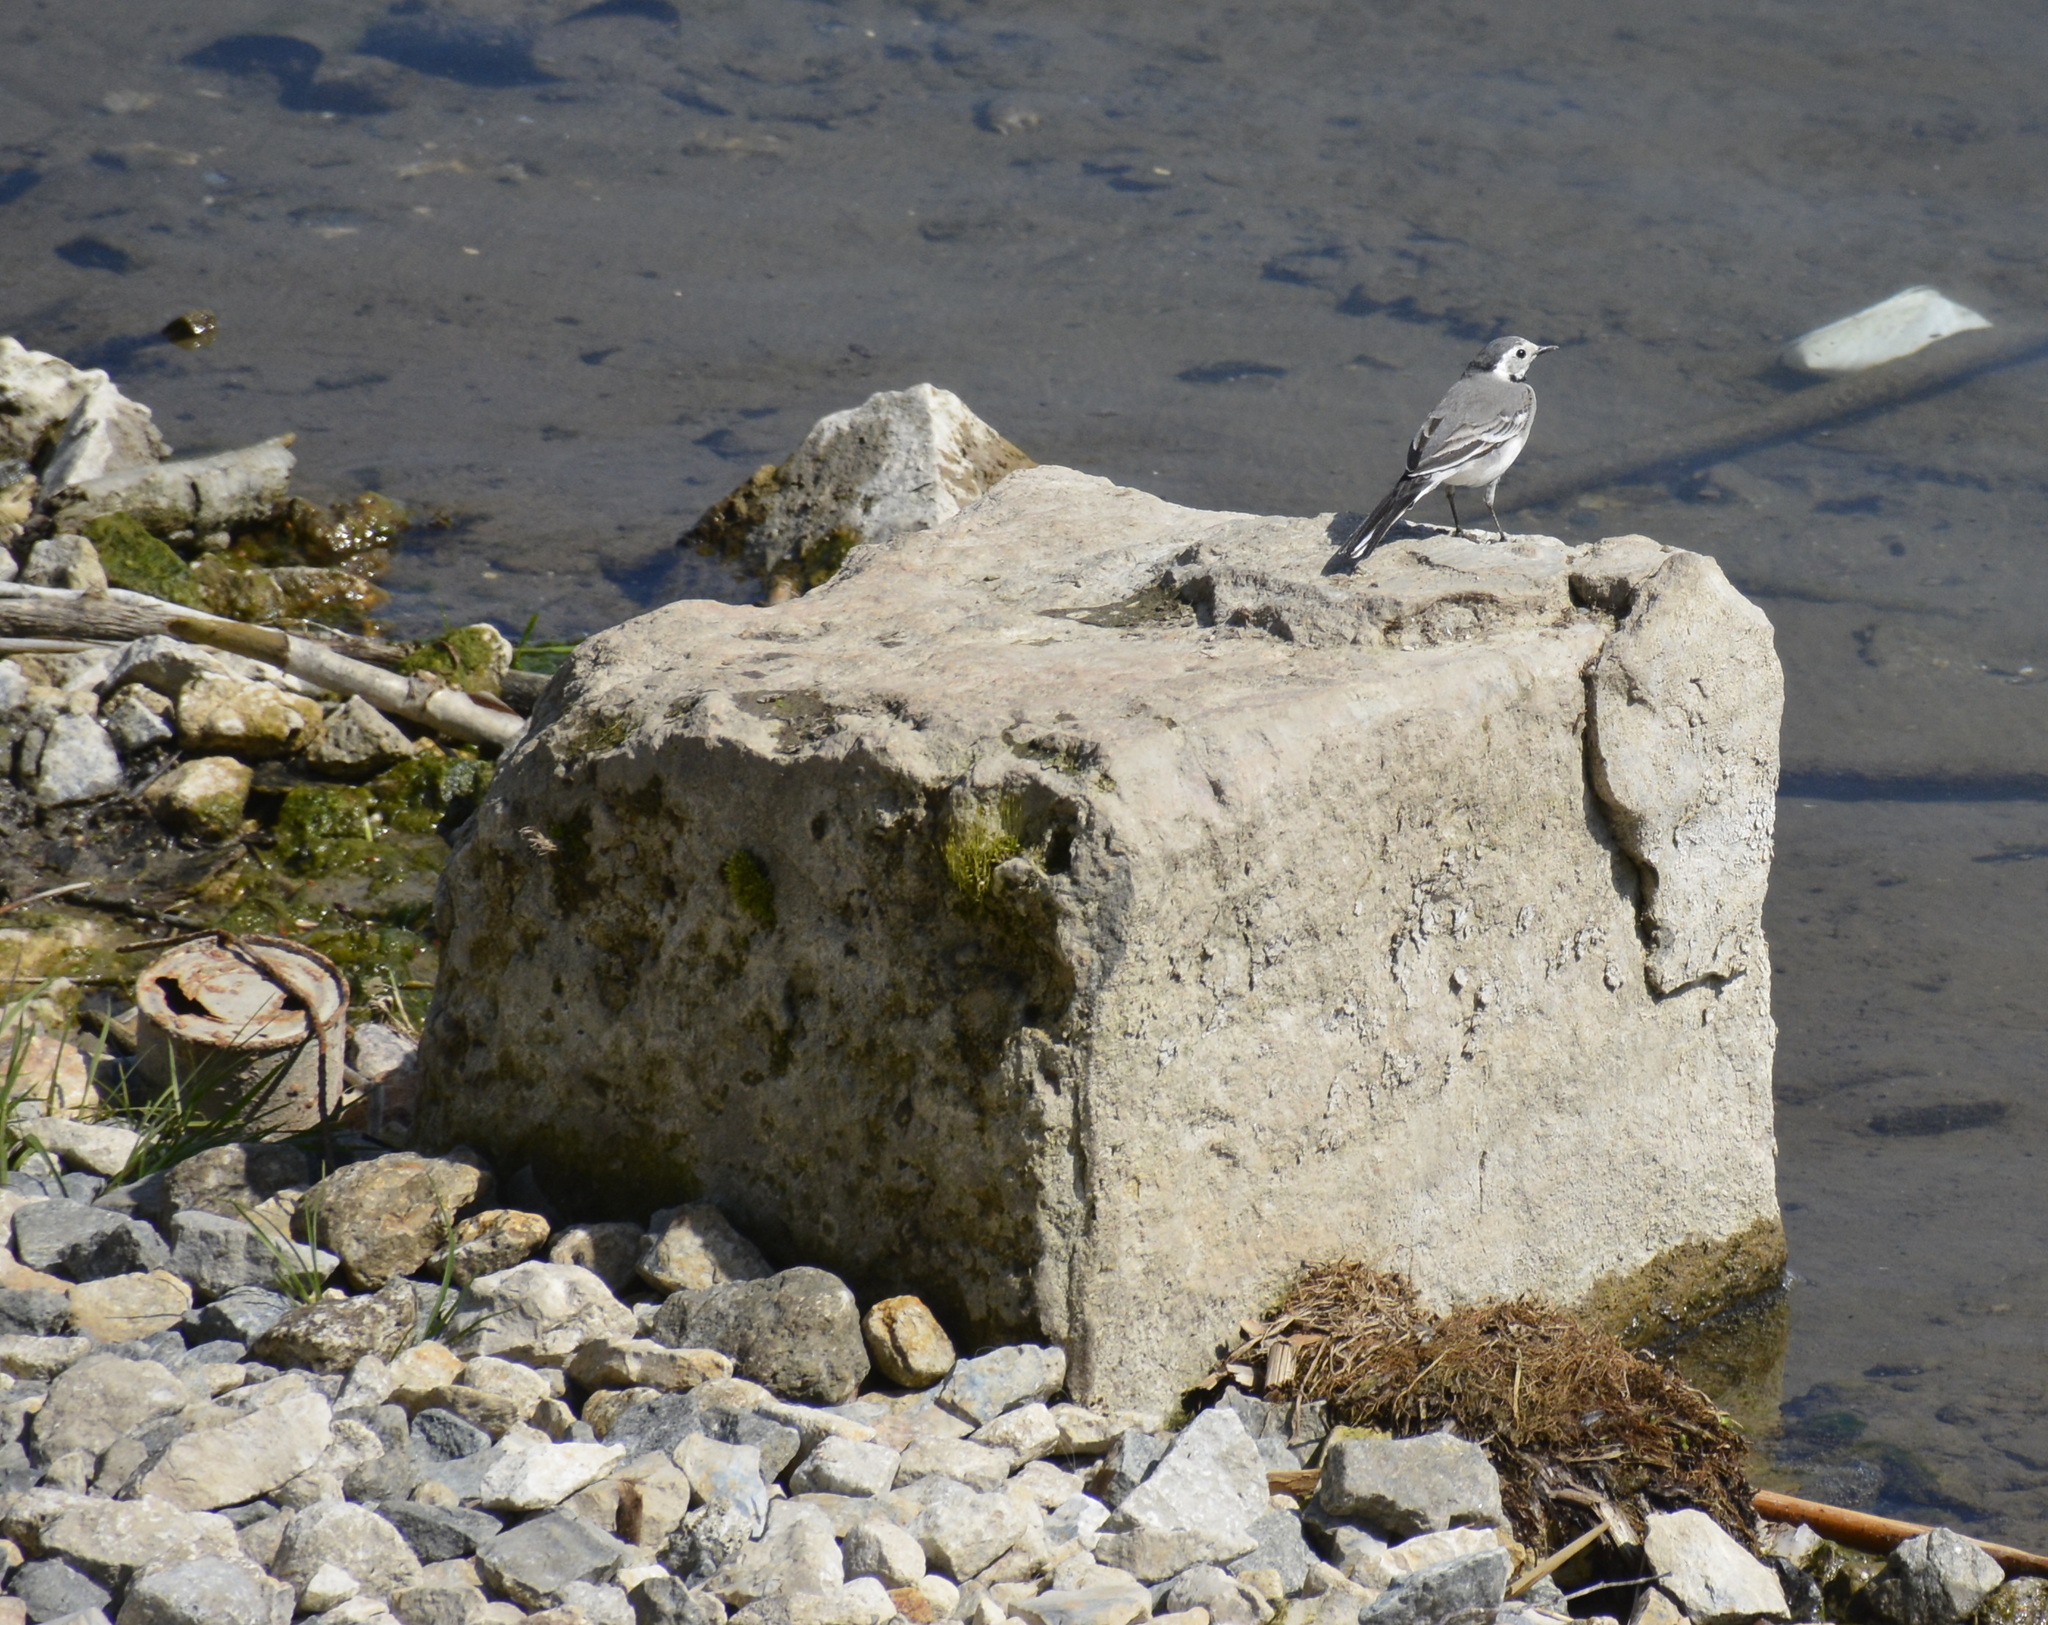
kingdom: Animalia
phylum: Chordata
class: Aves
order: Passeriformes
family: Motacillidae
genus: Motacilla
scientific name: Motacilla alba
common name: White wagtail
